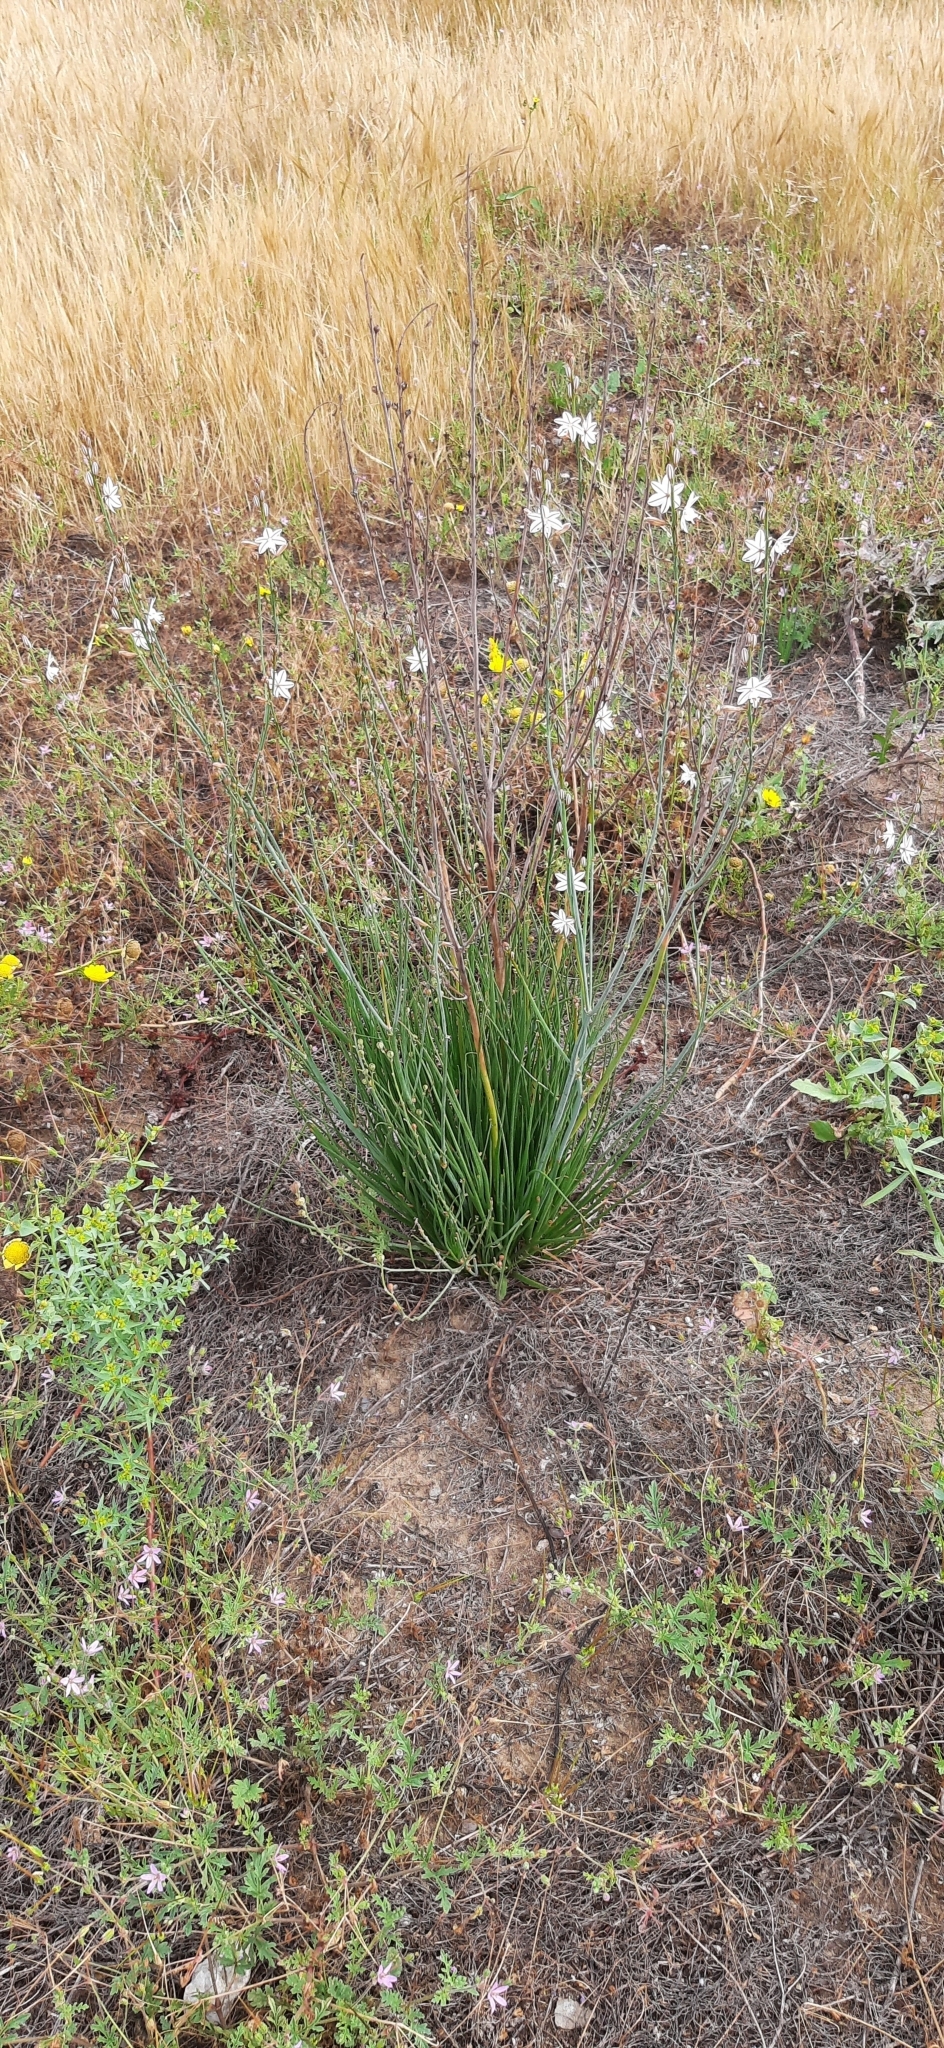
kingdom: Plantae
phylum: Tracheophyta
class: Liliopsida
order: Asparagales
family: Asphodelaceae
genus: Asphodelus
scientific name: Asphodelus fistulosus
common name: Onionweed
